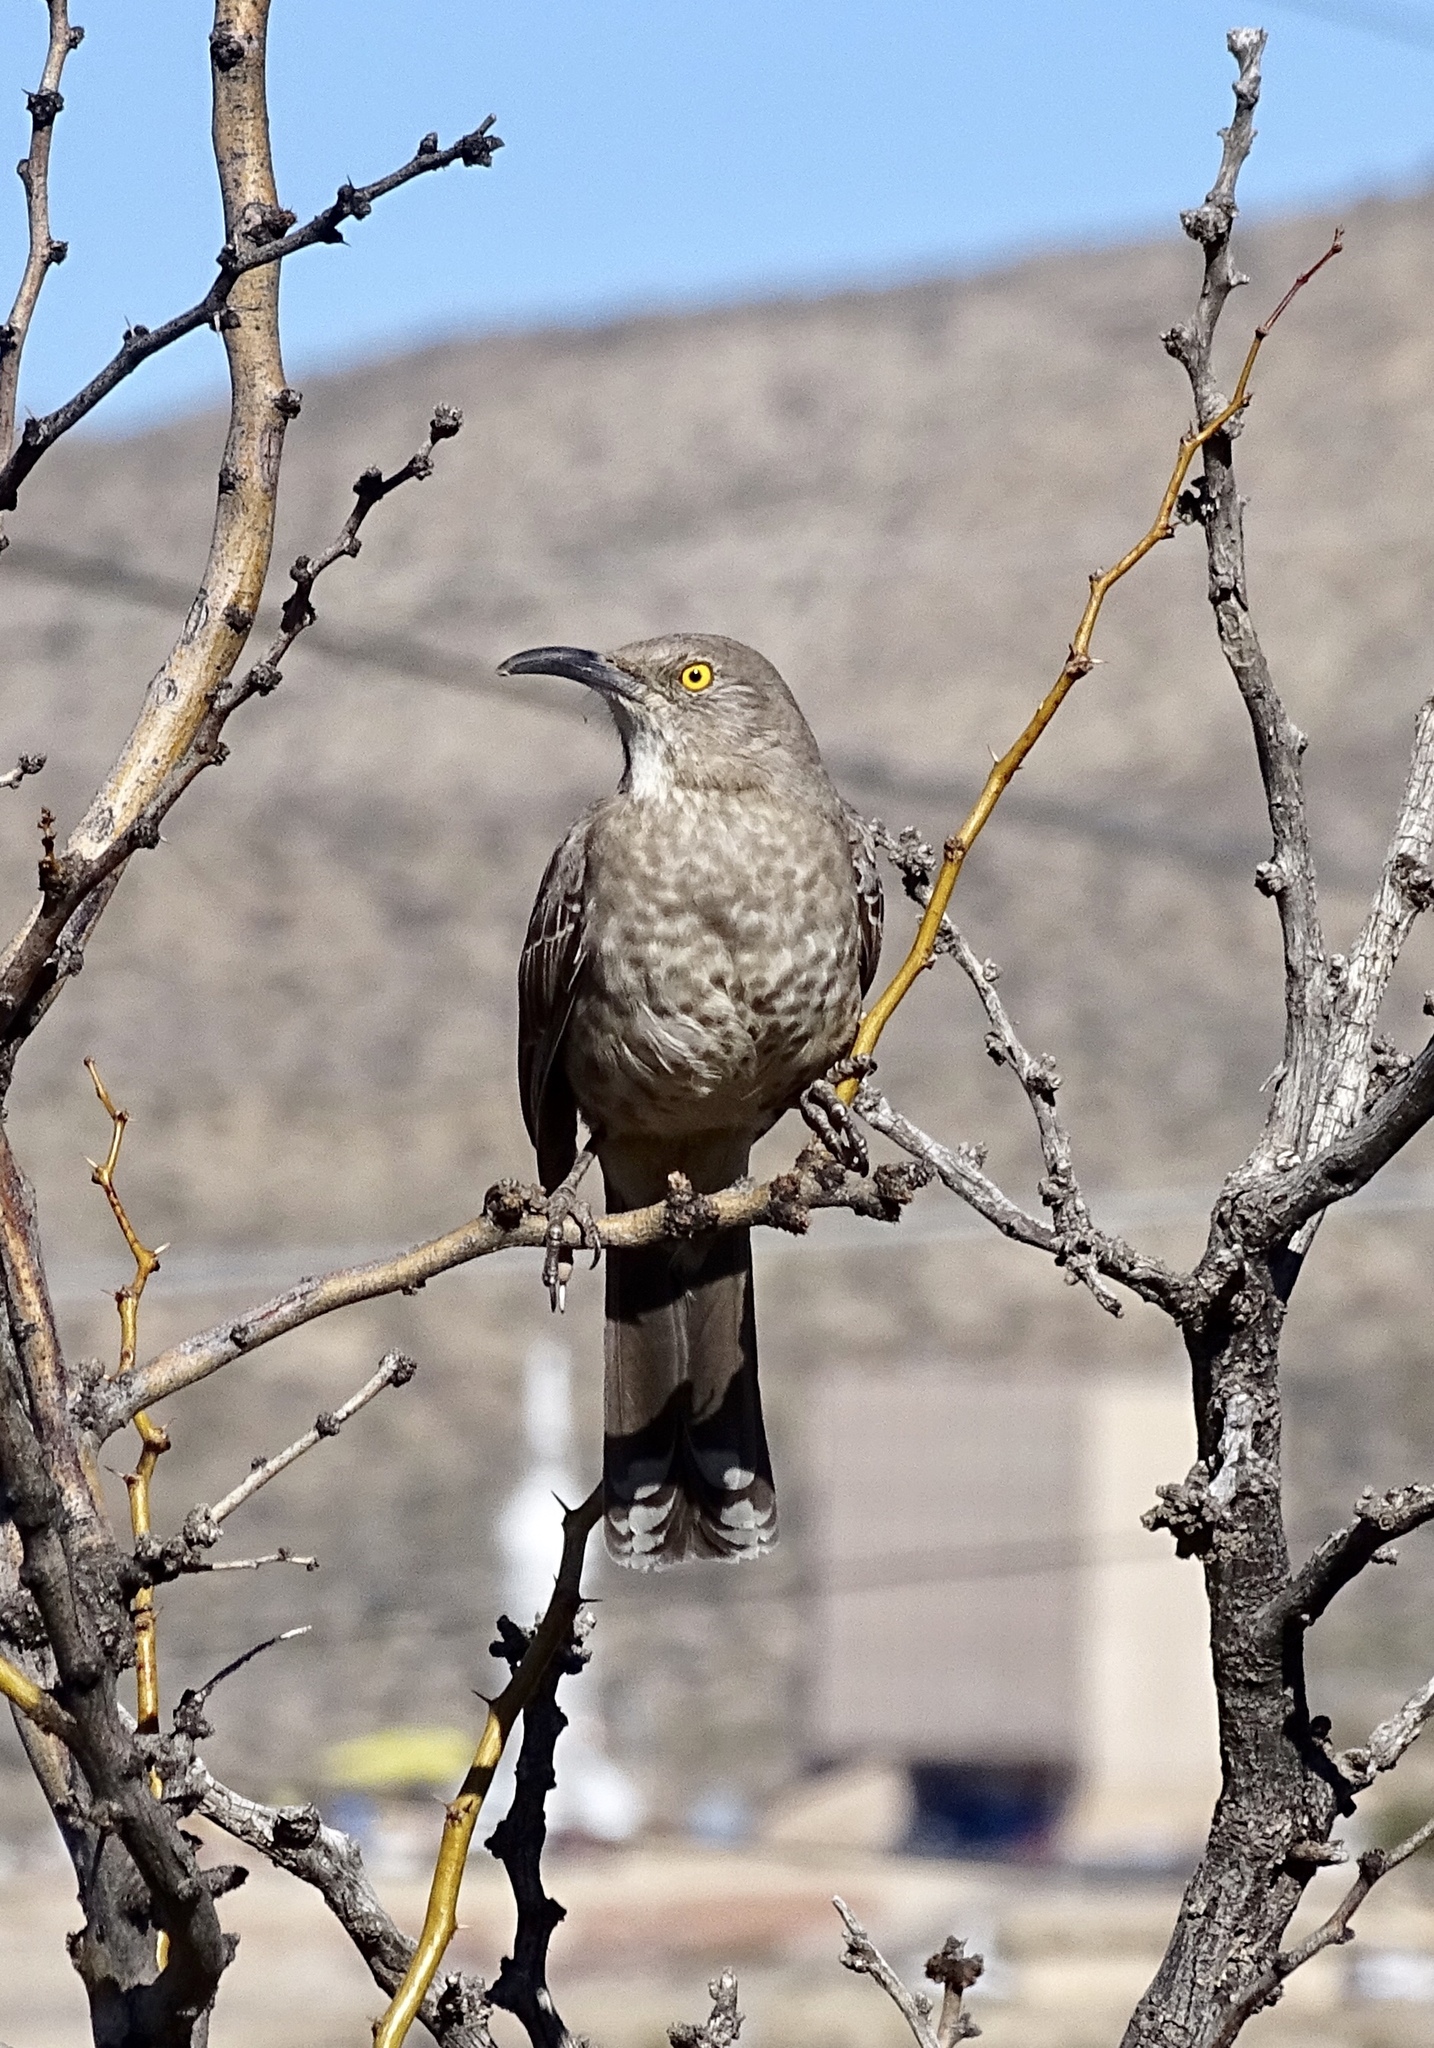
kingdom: Animalia
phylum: Chordata
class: Aves
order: Passeriformes
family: Mimidae
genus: Toxostoma
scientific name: Toxostoma curvirostre
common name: Curve-billed thrasher
